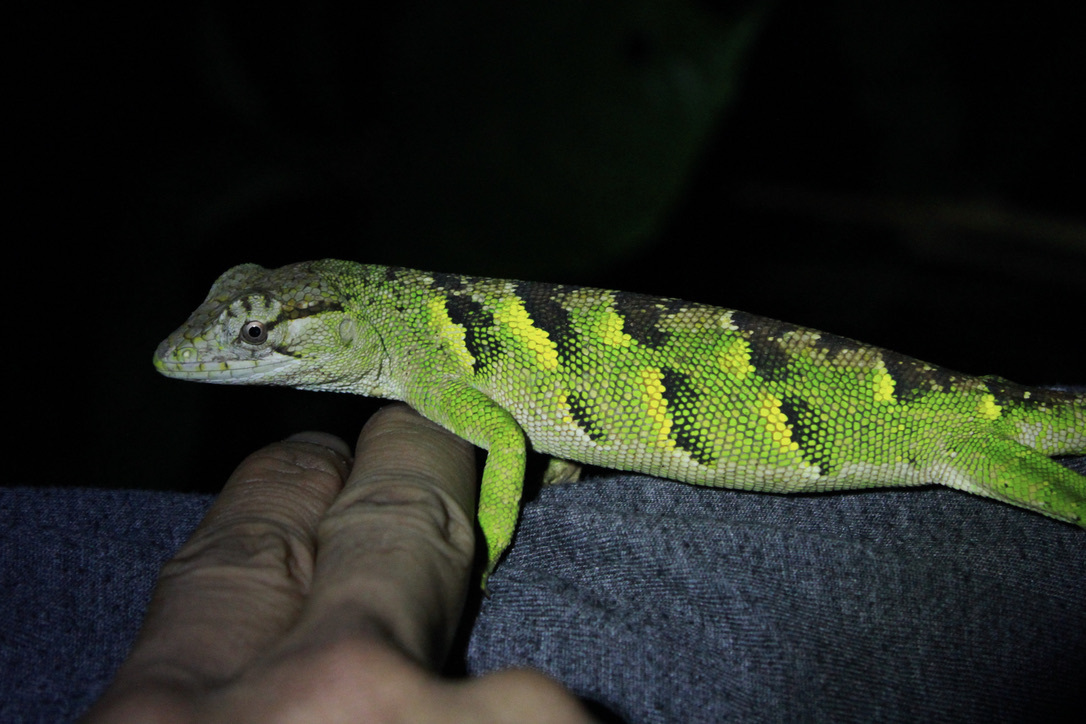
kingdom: Animalia
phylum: Chordata
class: Squamata
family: Polychrotidae
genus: Polychrus
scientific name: Polychrus auduboni
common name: Common monkey lizard
